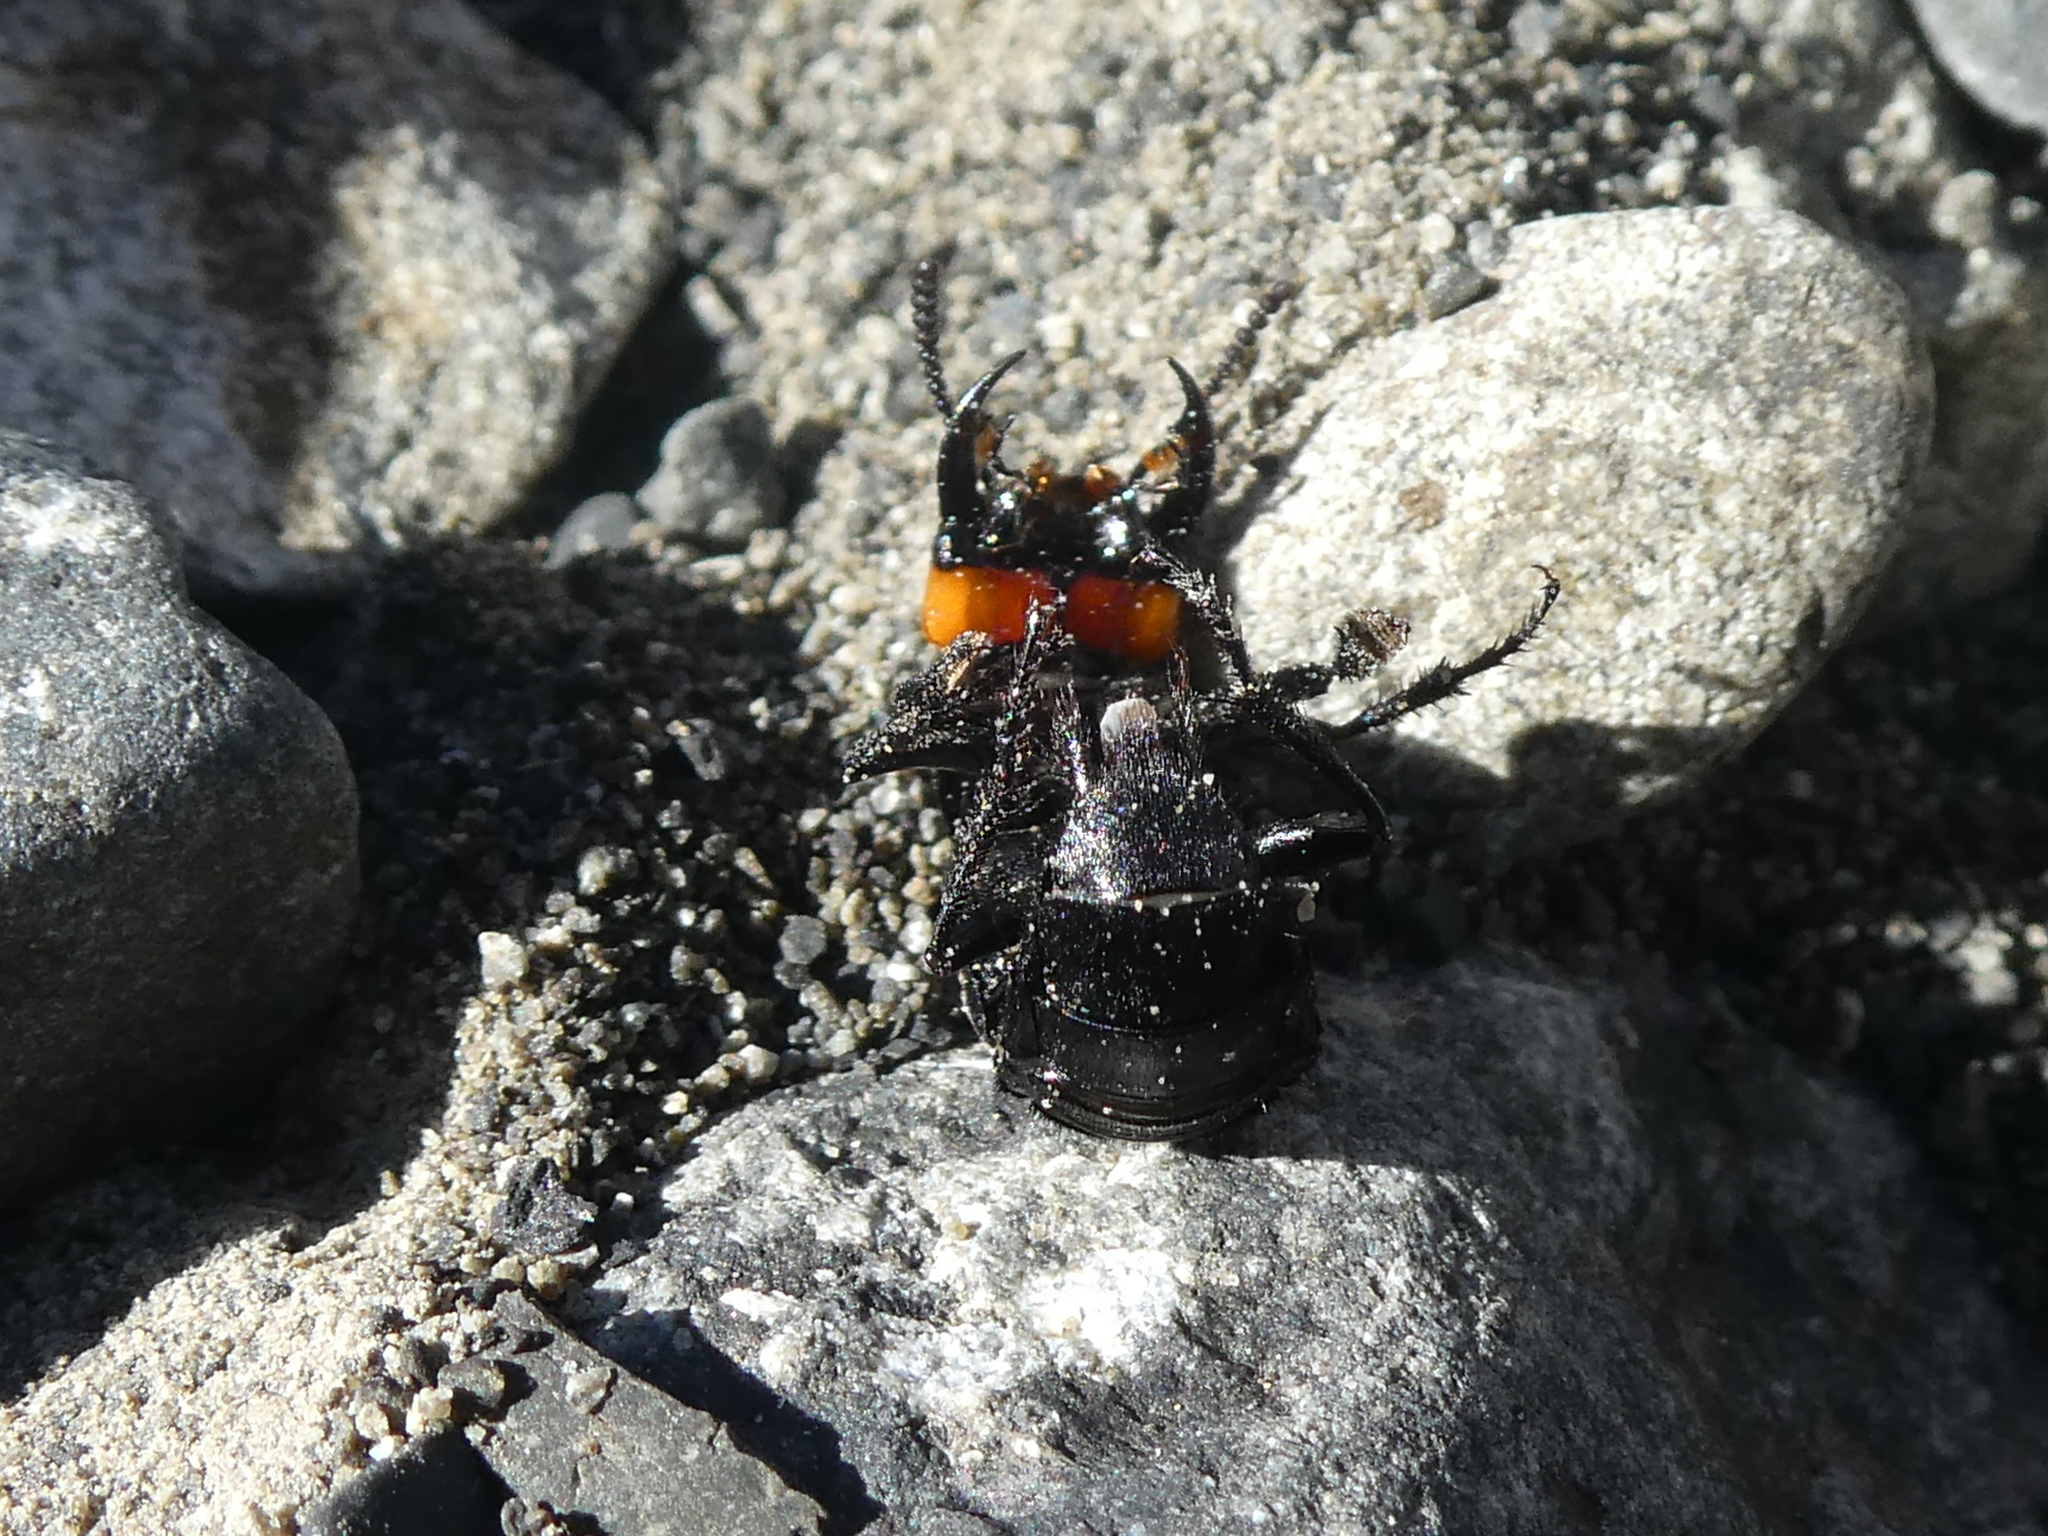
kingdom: Animalia
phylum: Arthropoda
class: Insecta
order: Coleoptera
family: Staphylinidae
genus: Creophilus
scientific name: Creophilus oculatus
